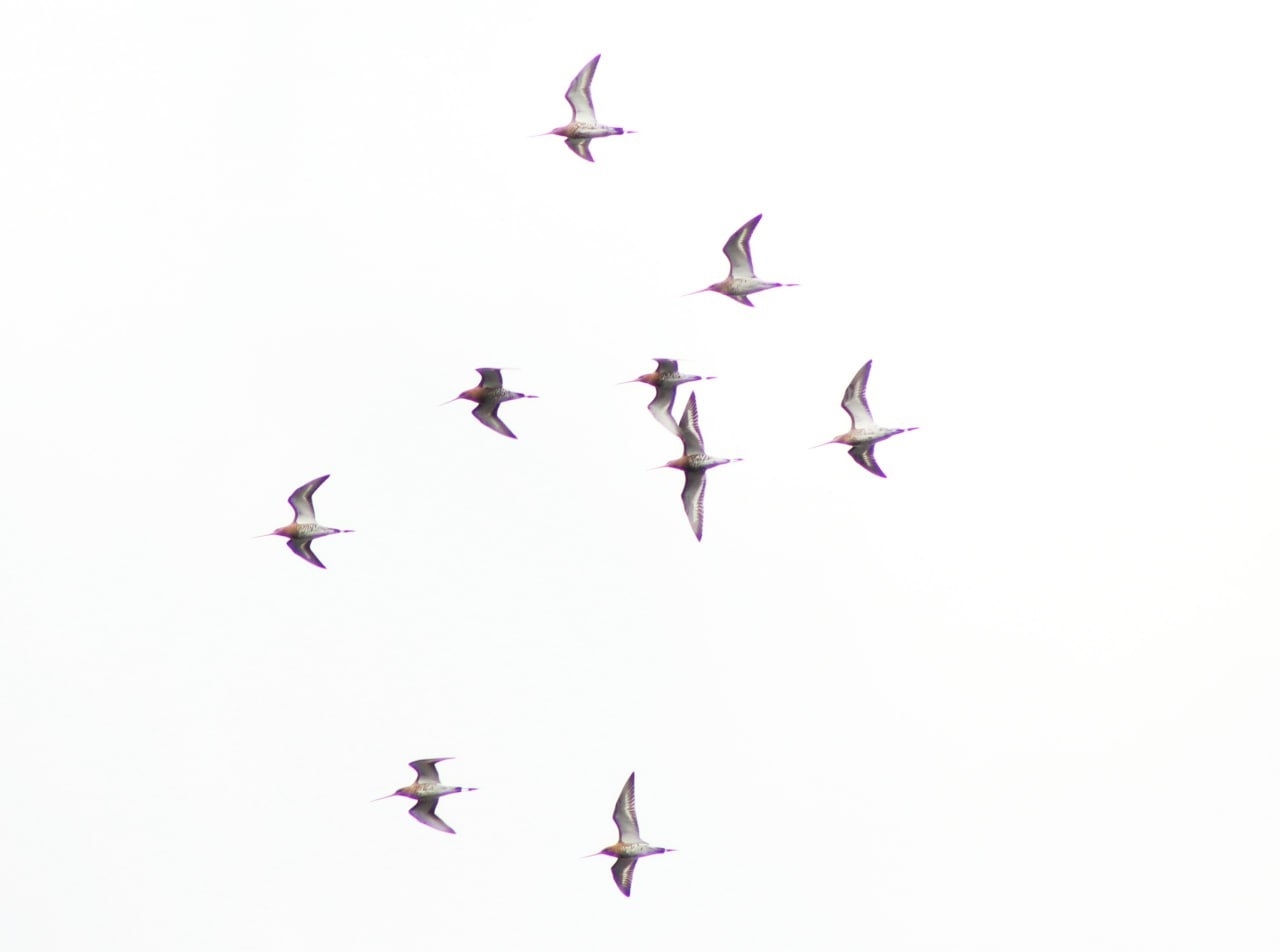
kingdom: Animalia
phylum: Chordata
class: Aves
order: Charadriiformes
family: Scolopacidae
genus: Limosa
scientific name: Limosa limosa
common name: Black-tailed godwit
